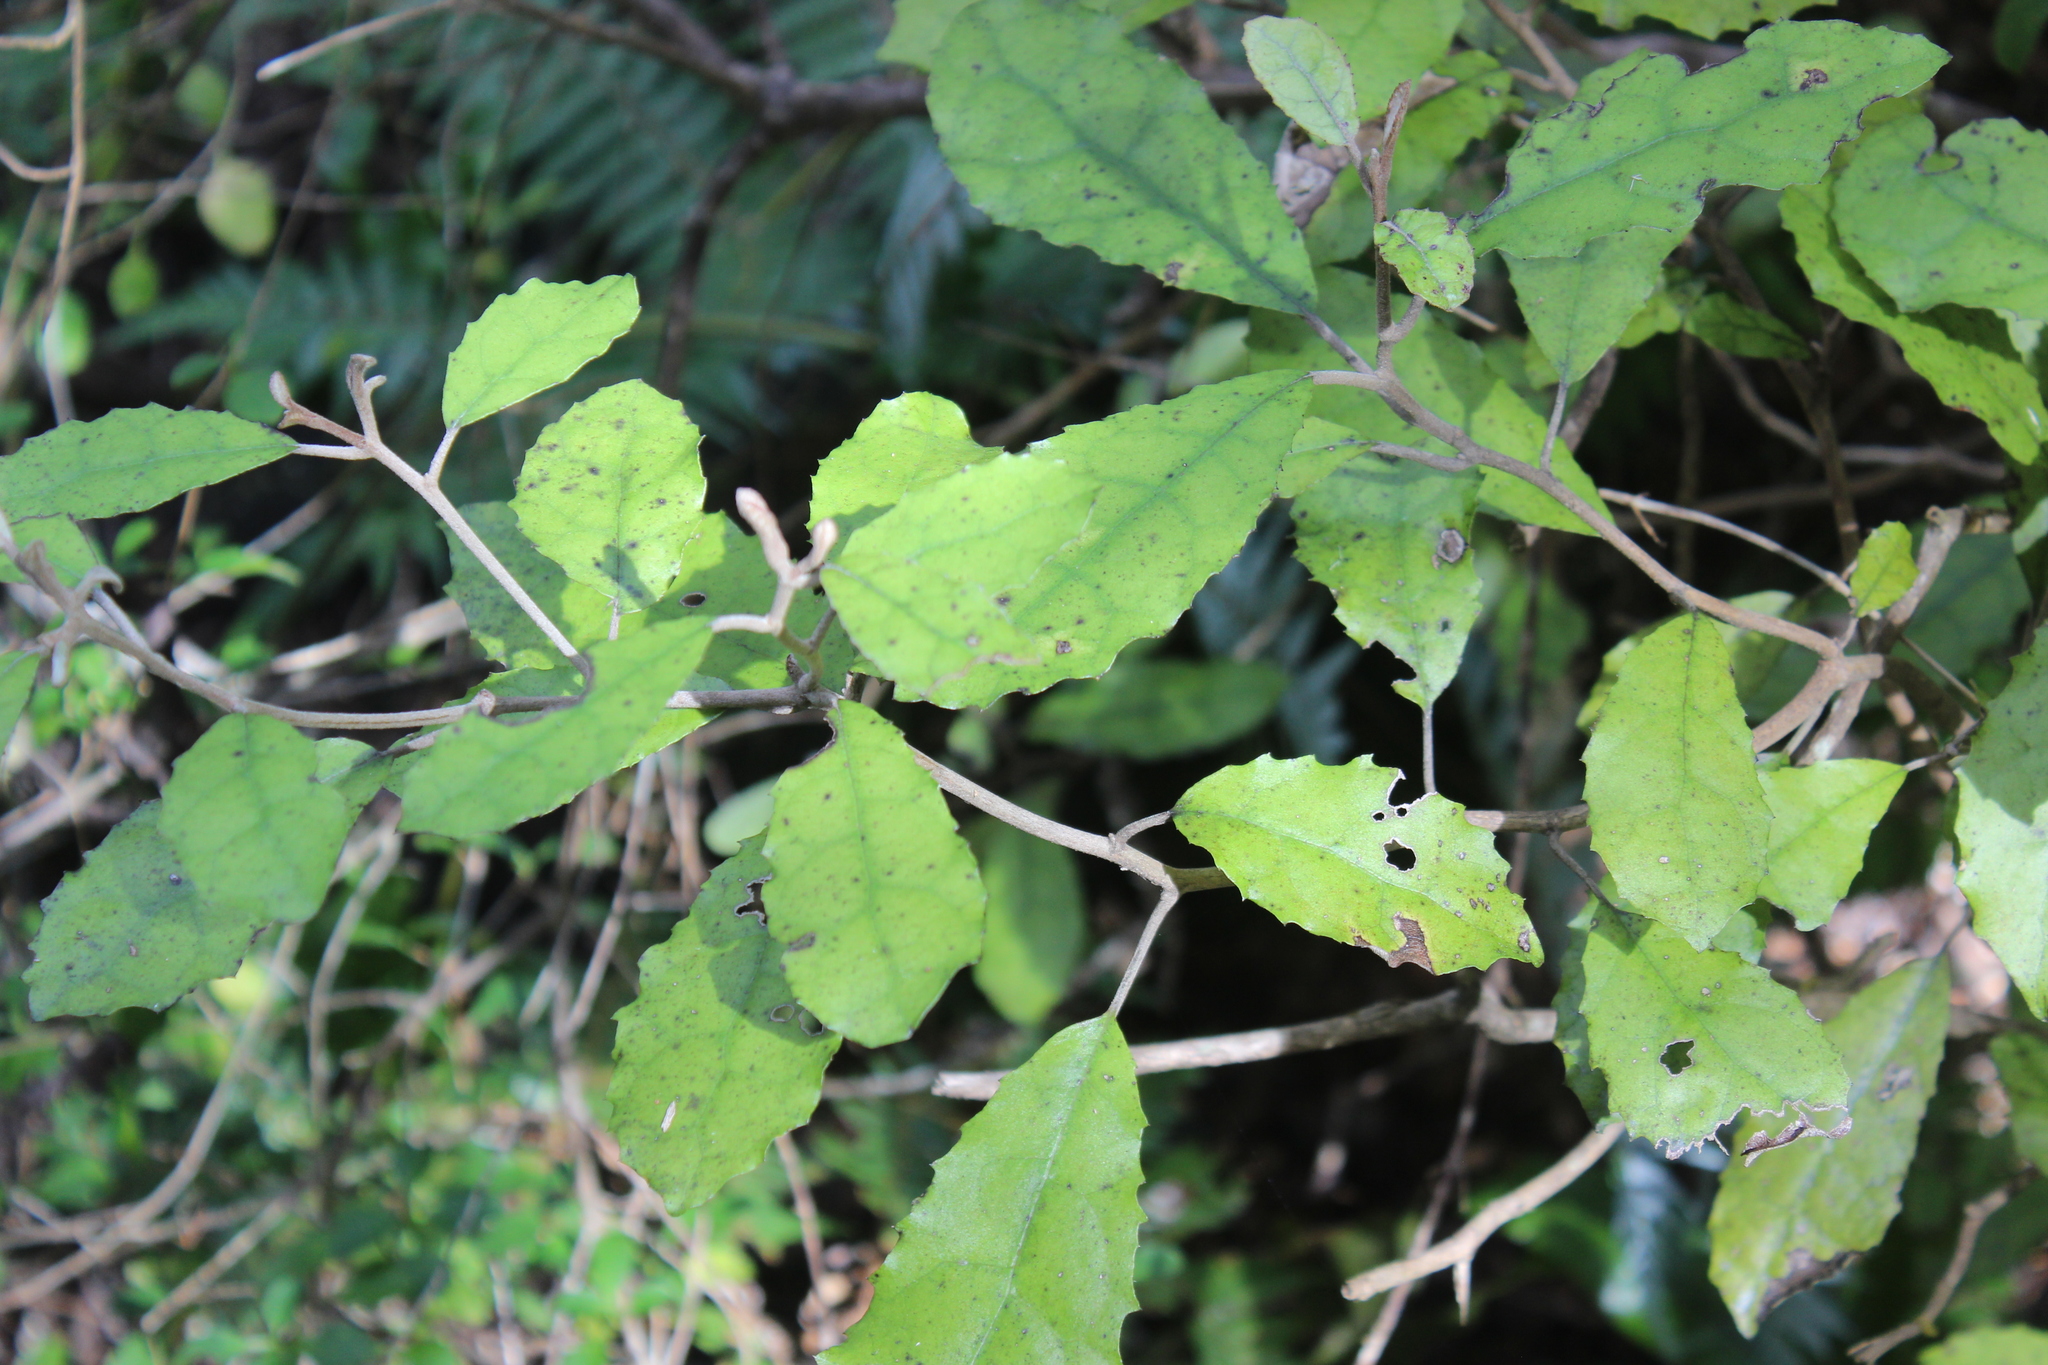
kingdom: Plantae
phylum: Tracheophyta
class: Magnoliopsida
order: Asterales
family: Asteraceae
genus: Olearia
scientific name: Olearia rani
